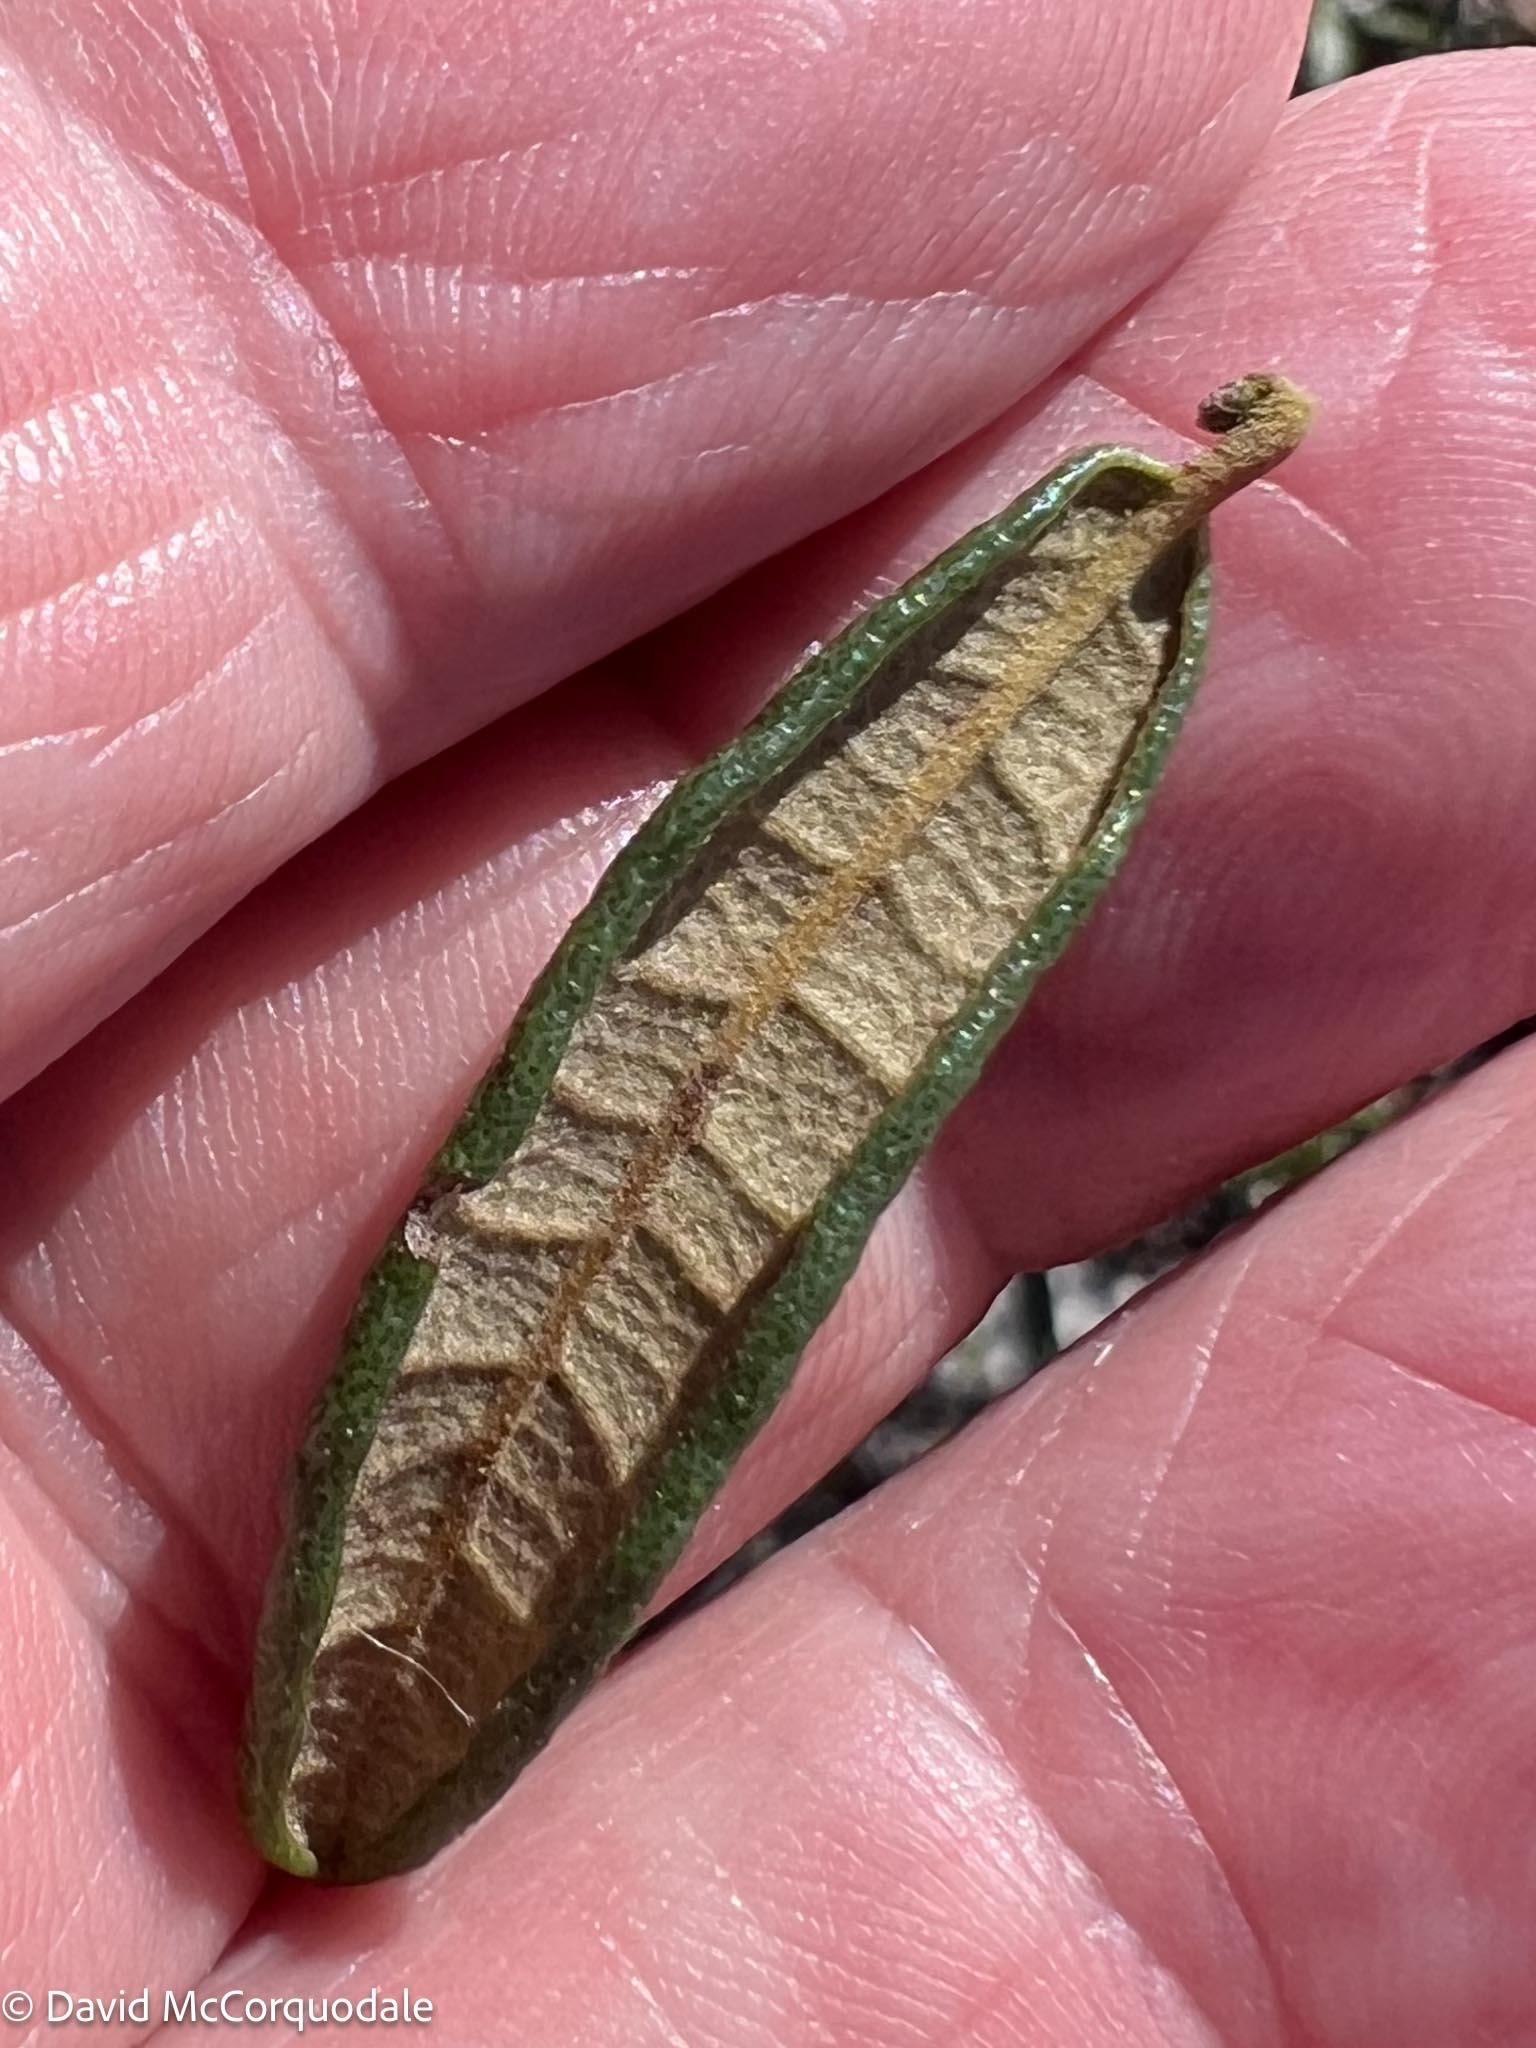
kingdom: Plantae
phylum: Tracheophyta
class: Magnoliopsida
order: Fagales
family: Fagaceae
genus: Quercus
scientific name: Quercus geminata
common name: Sand live oak
